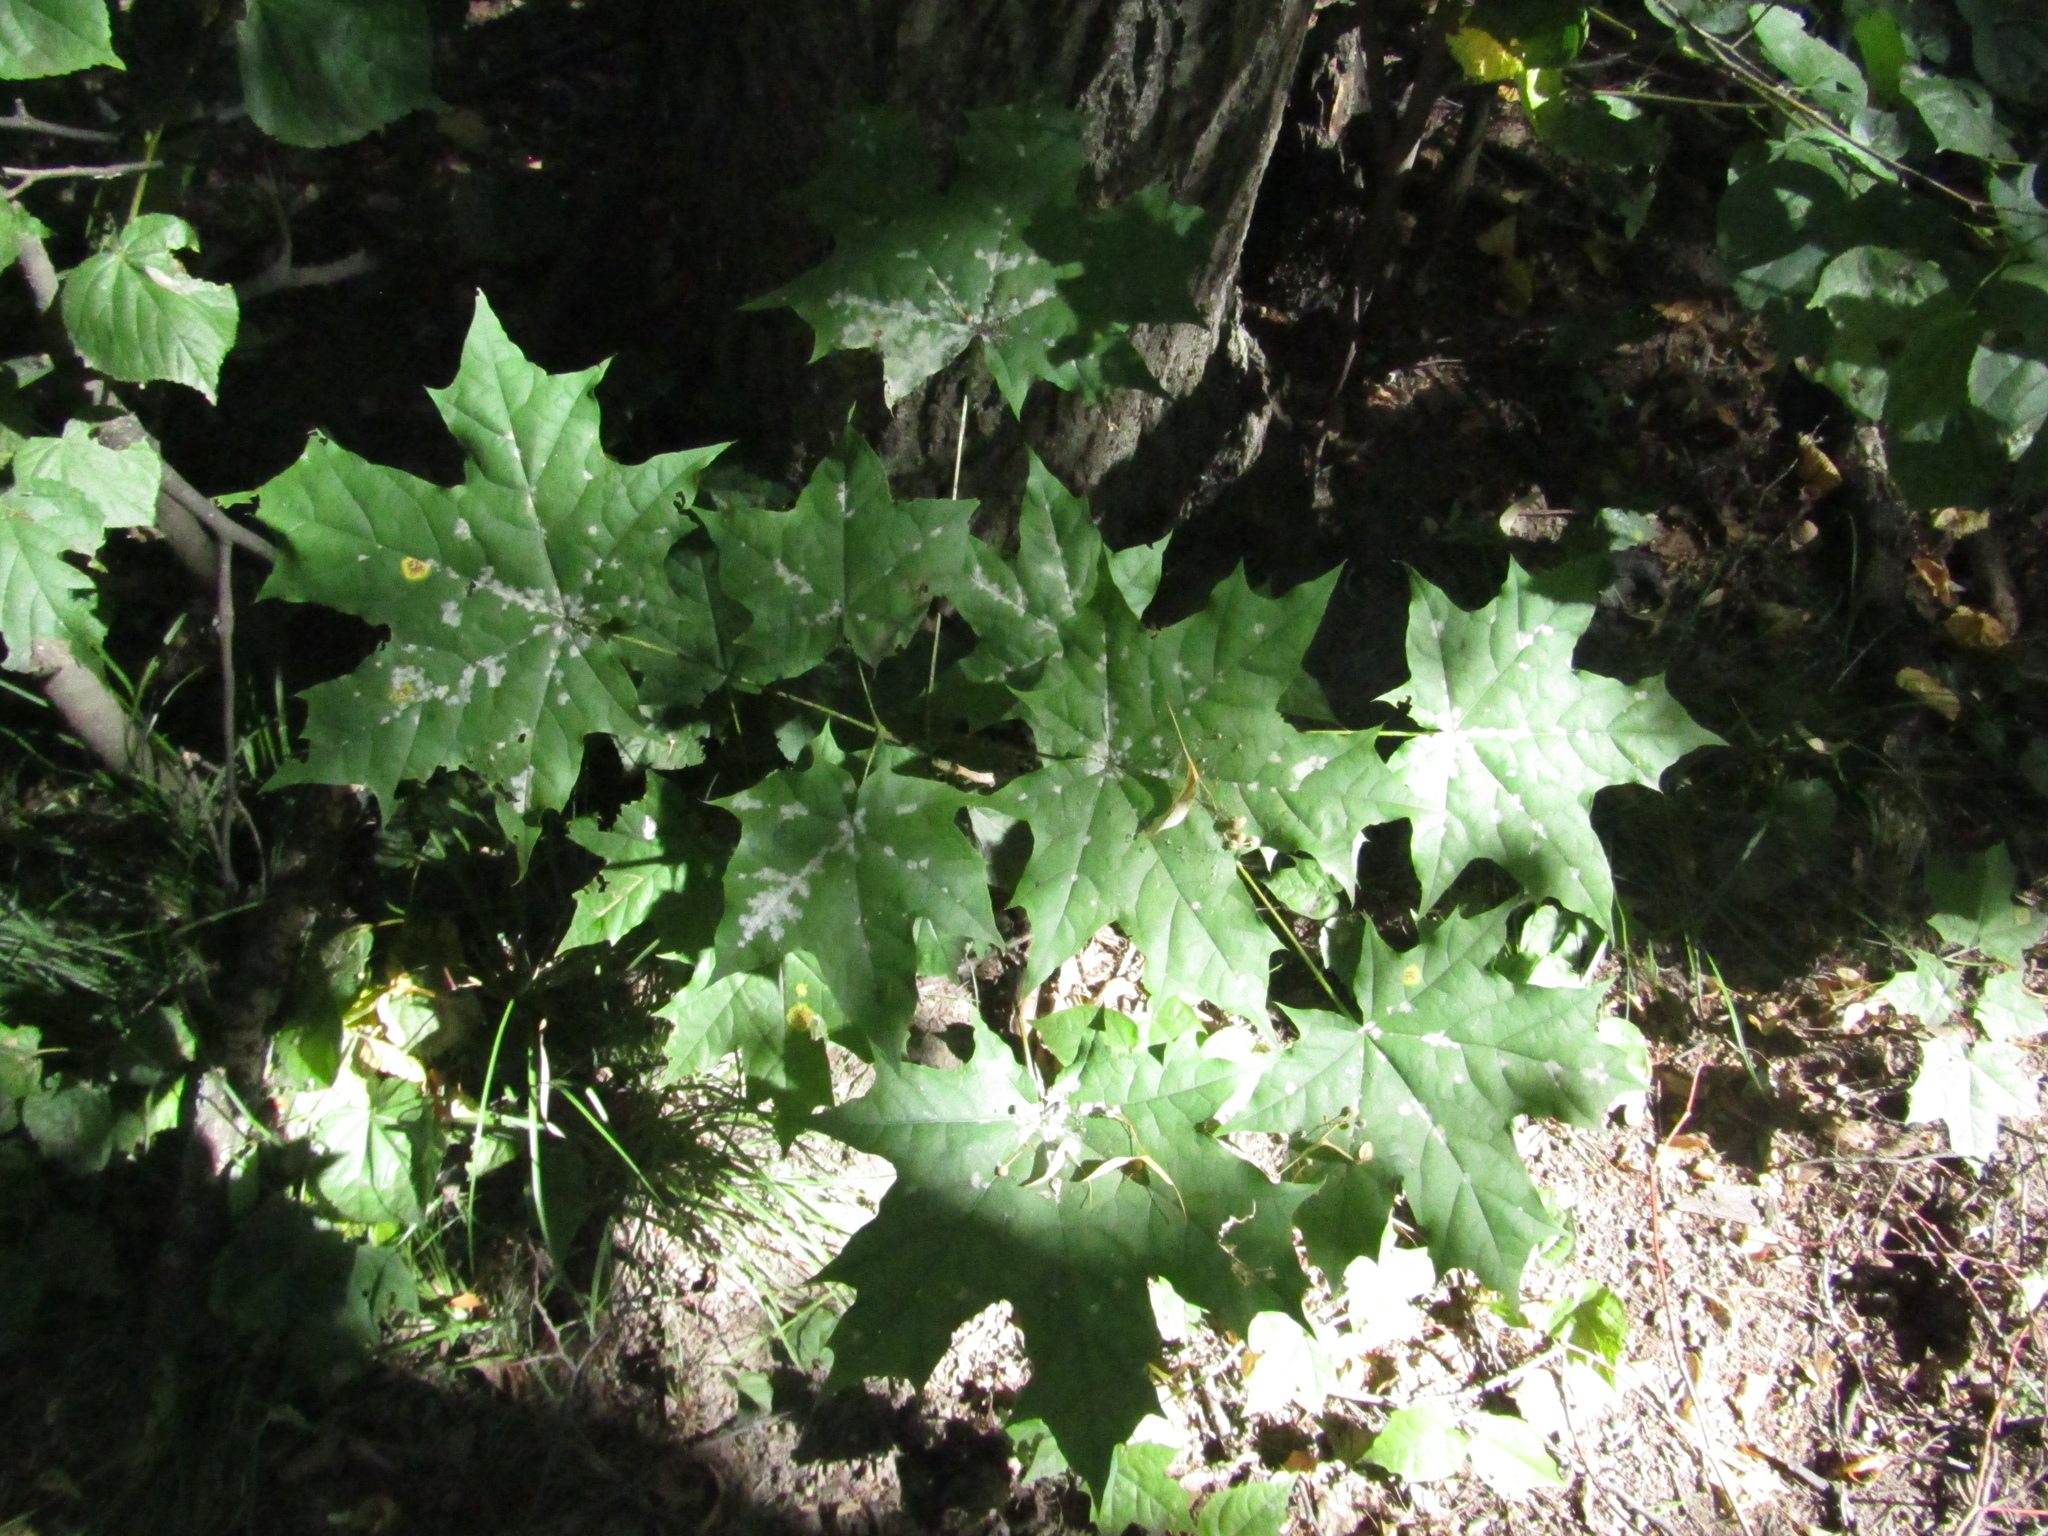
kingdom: Plantae
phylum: Tracheophyta
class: Magnoliopsida
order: Sapindales
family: Sapindaceae
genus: Acer
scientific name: Acer platanoides
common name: Norway maple
